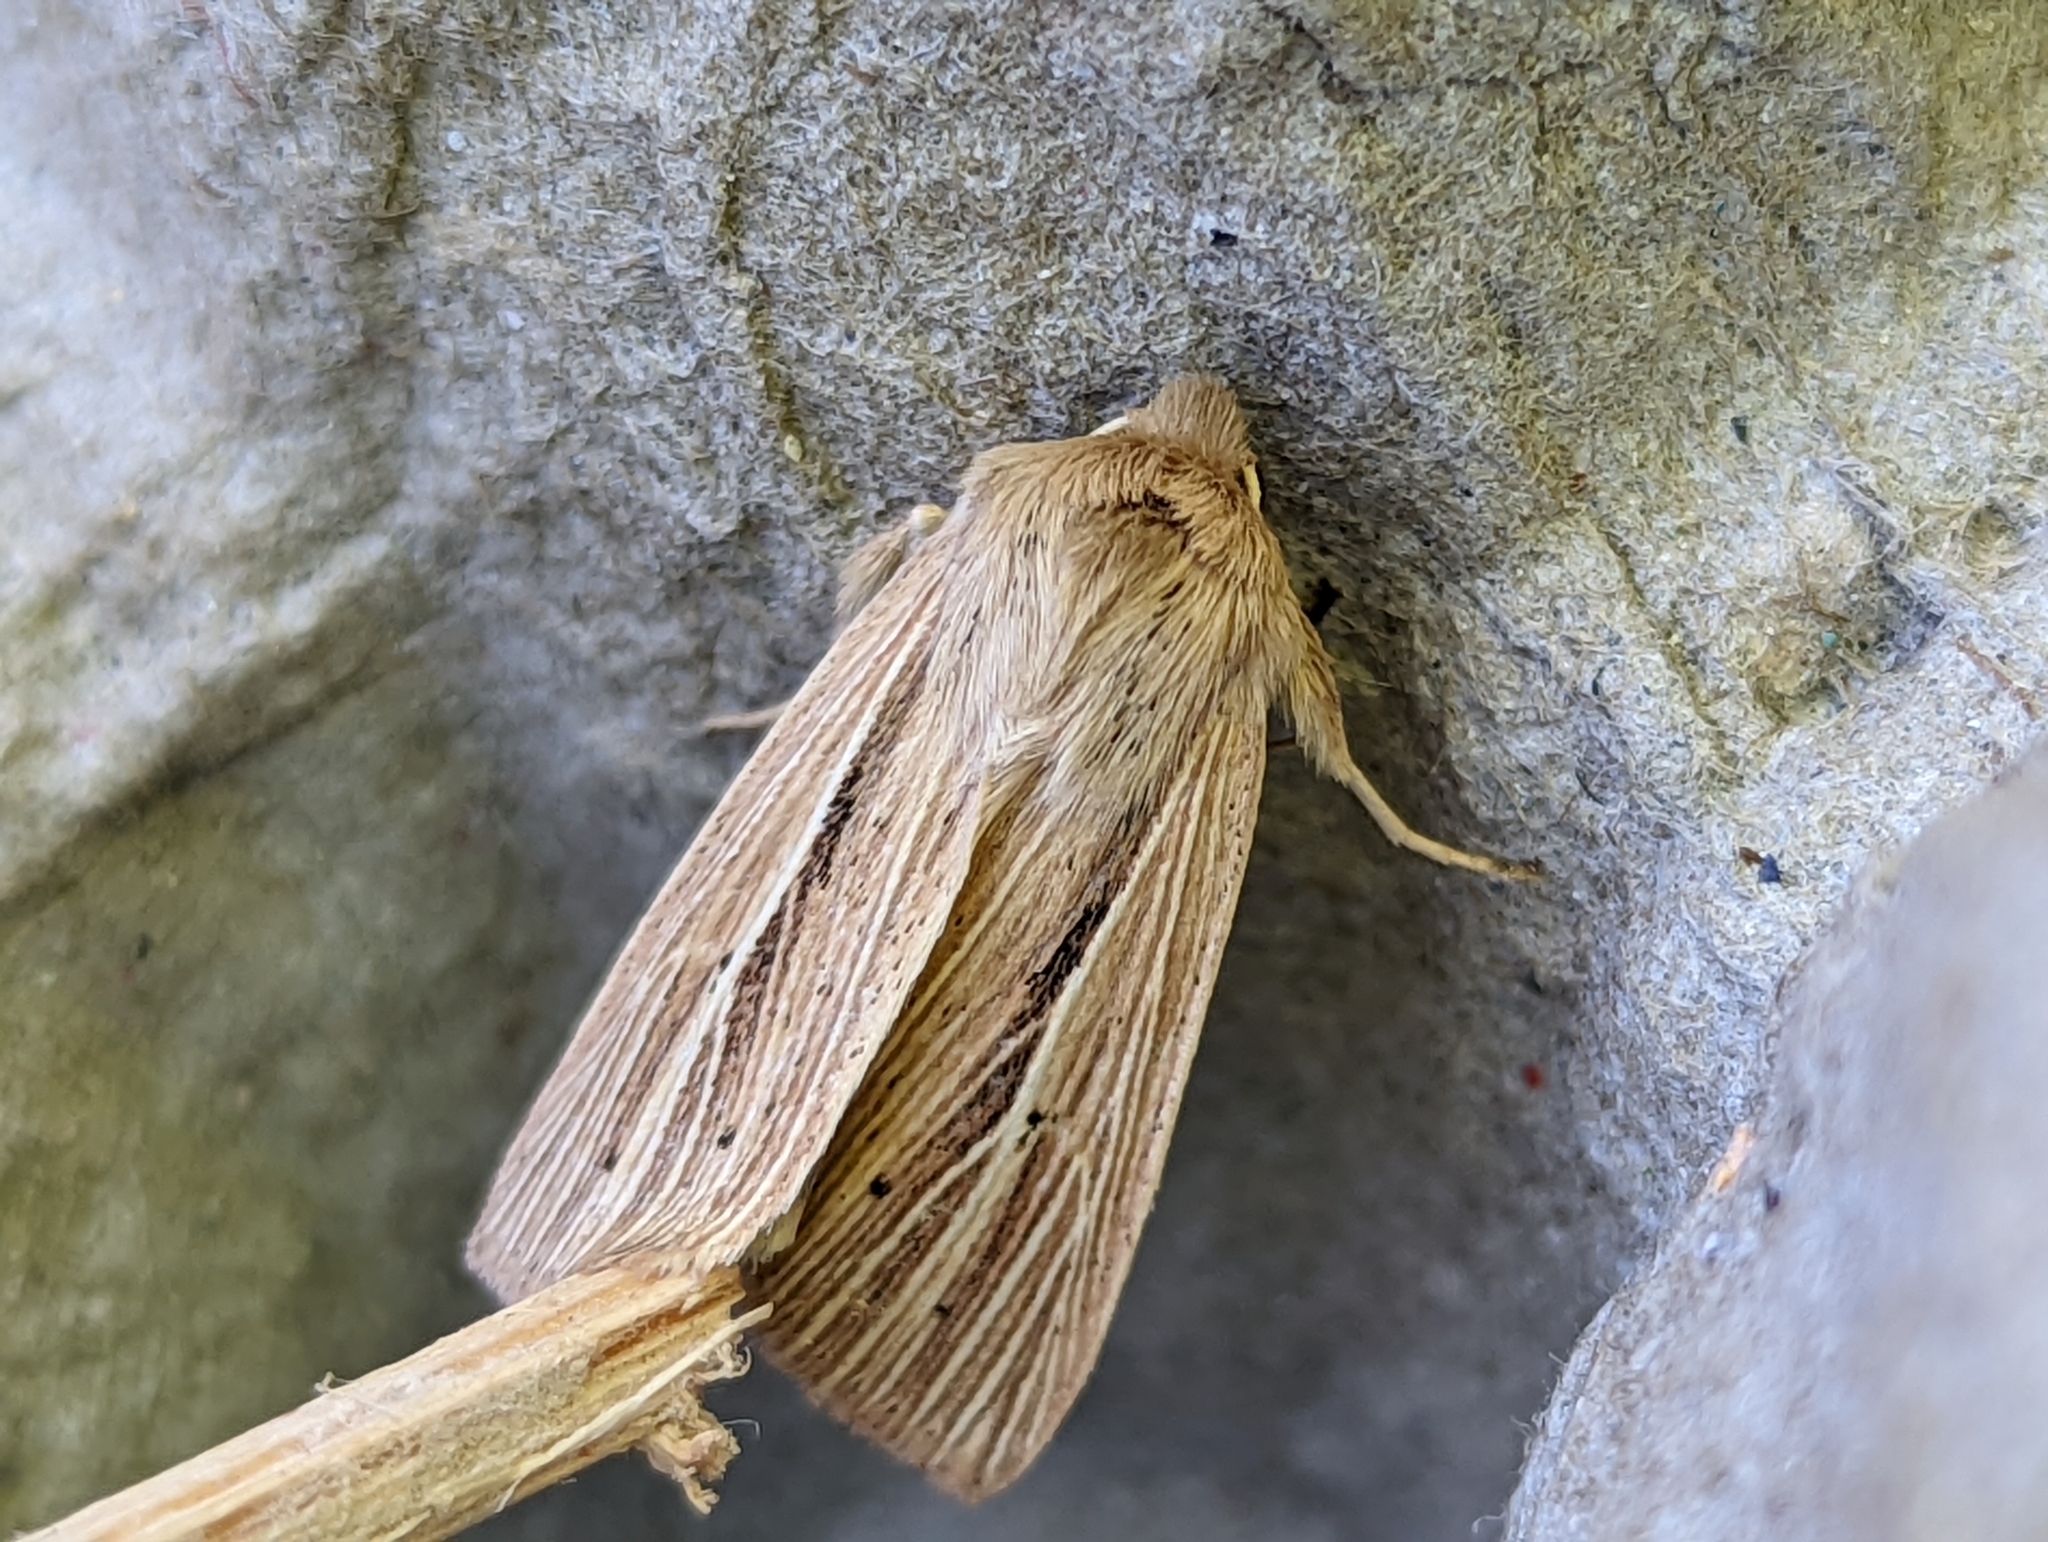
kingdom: Animalia
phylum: Arthropoda
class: Insecta
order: Lepidoptera
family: Noctuidae
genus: Mythimna
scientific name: Mythimna impura
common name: Smoky wainscot
